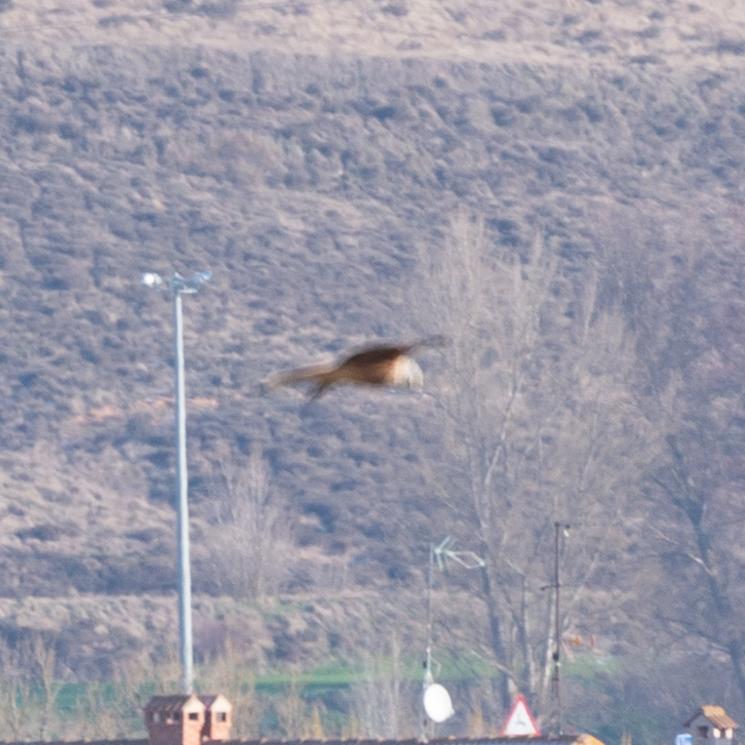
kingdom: Animalia
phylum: Chordata
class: Aves
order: Accipitriformes
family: Accipitridae
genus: Milvus
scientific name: Milvus milvus
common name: Red kite
